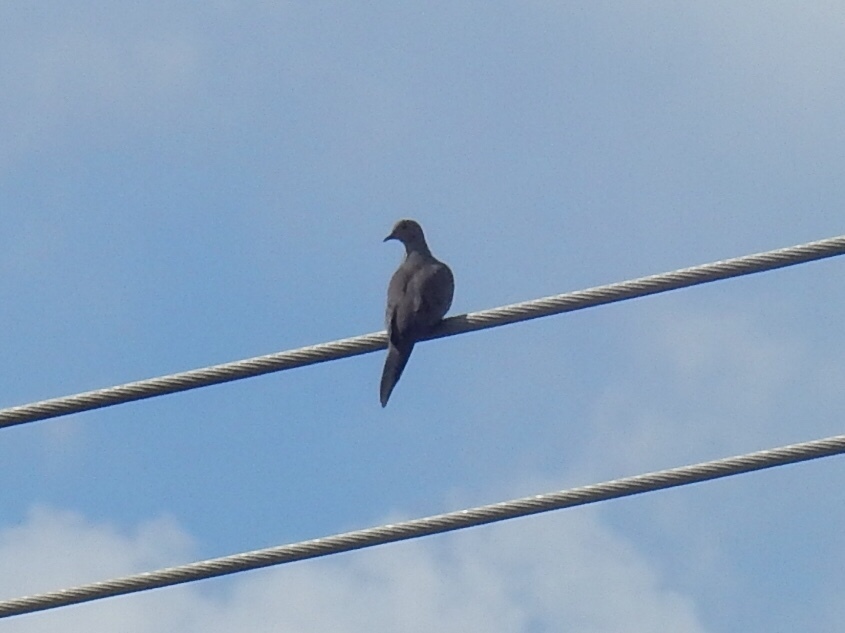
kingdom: Animalia
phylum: Chordata
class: Aves
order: Columbiformes
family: Columbidae
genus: Zenaida
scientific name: Zenaida macroura
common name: Mourning dove
